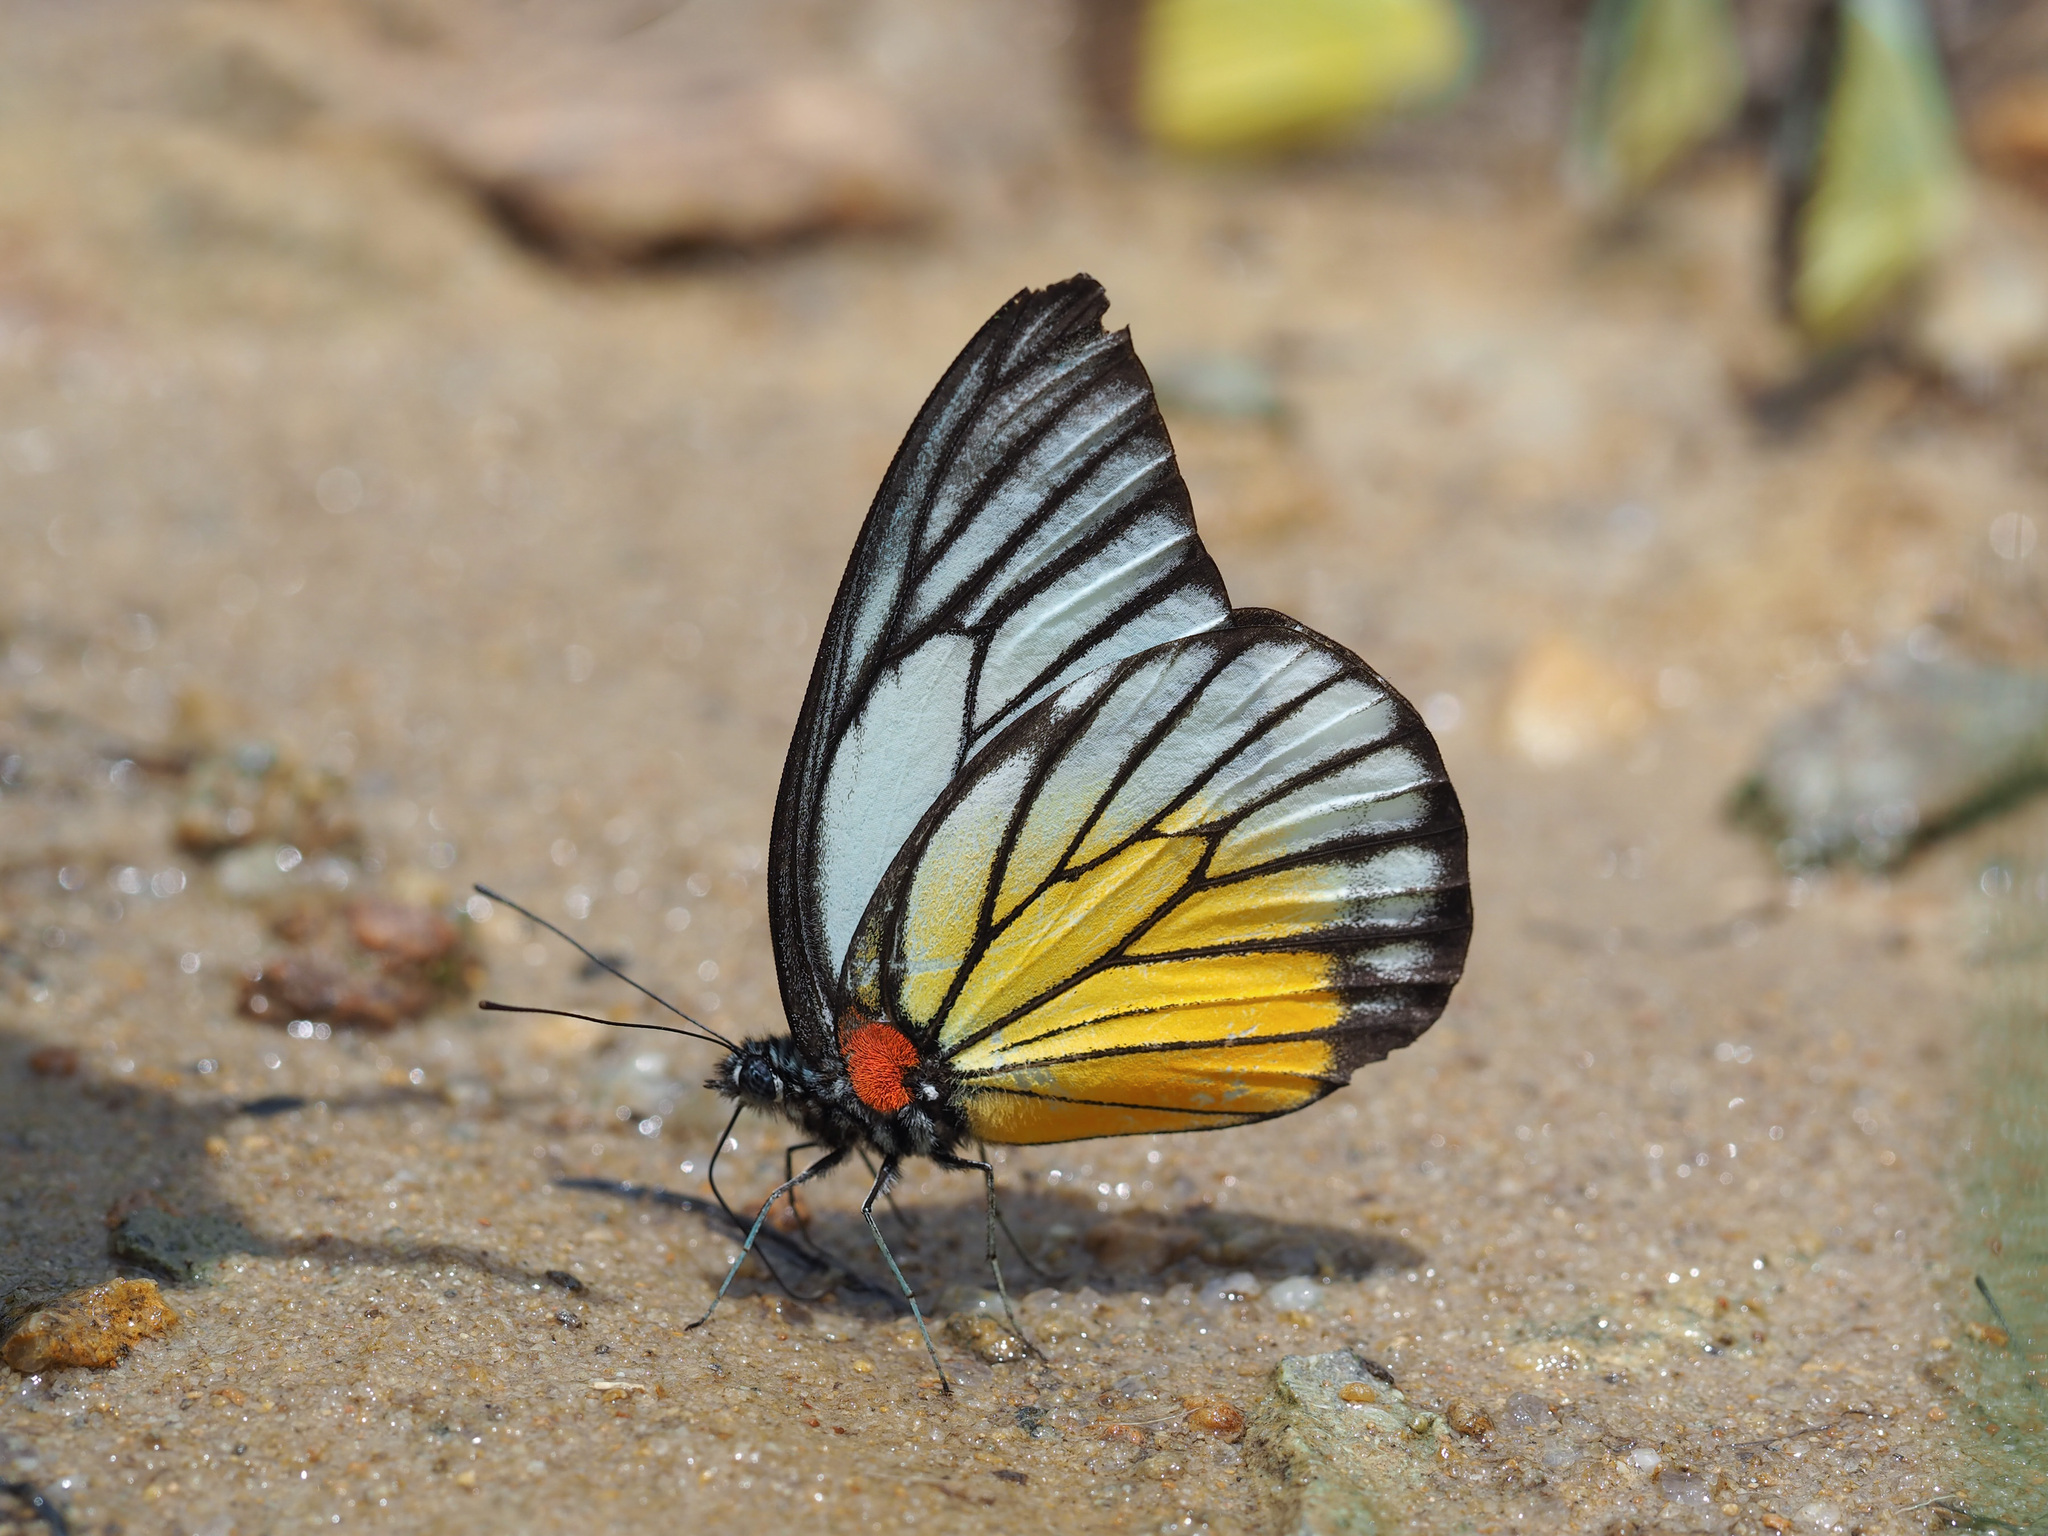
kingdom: Animalia
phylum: Arthropoda
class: Insecta
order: Lepidoptera
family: Pieridae
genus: Prioneris
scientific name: Prioneris philonome
